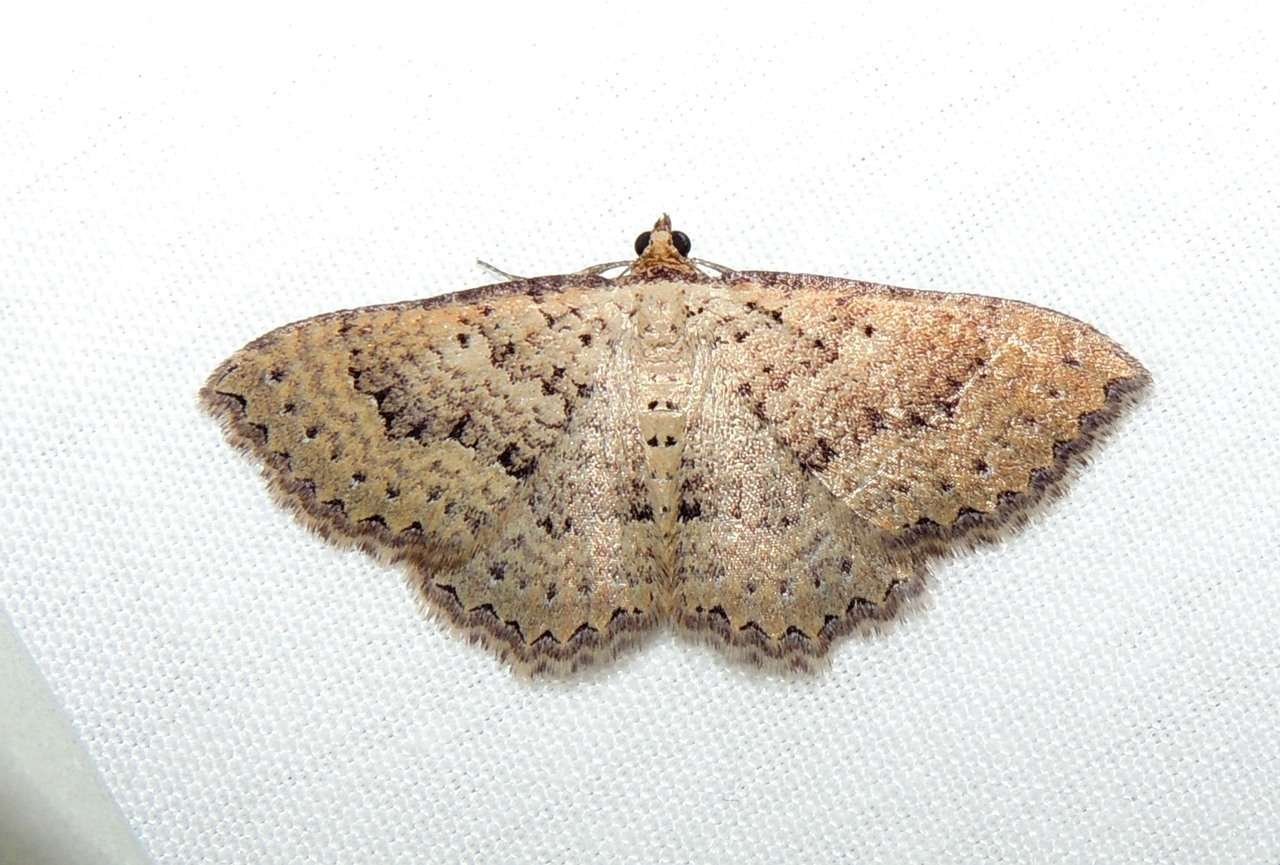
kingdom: Animalia
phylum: Arthropoda
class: Insecta
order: Lepidoptera
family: Geometridae
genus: Chrysolarentia
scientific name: Chrysolarentia microcyma
